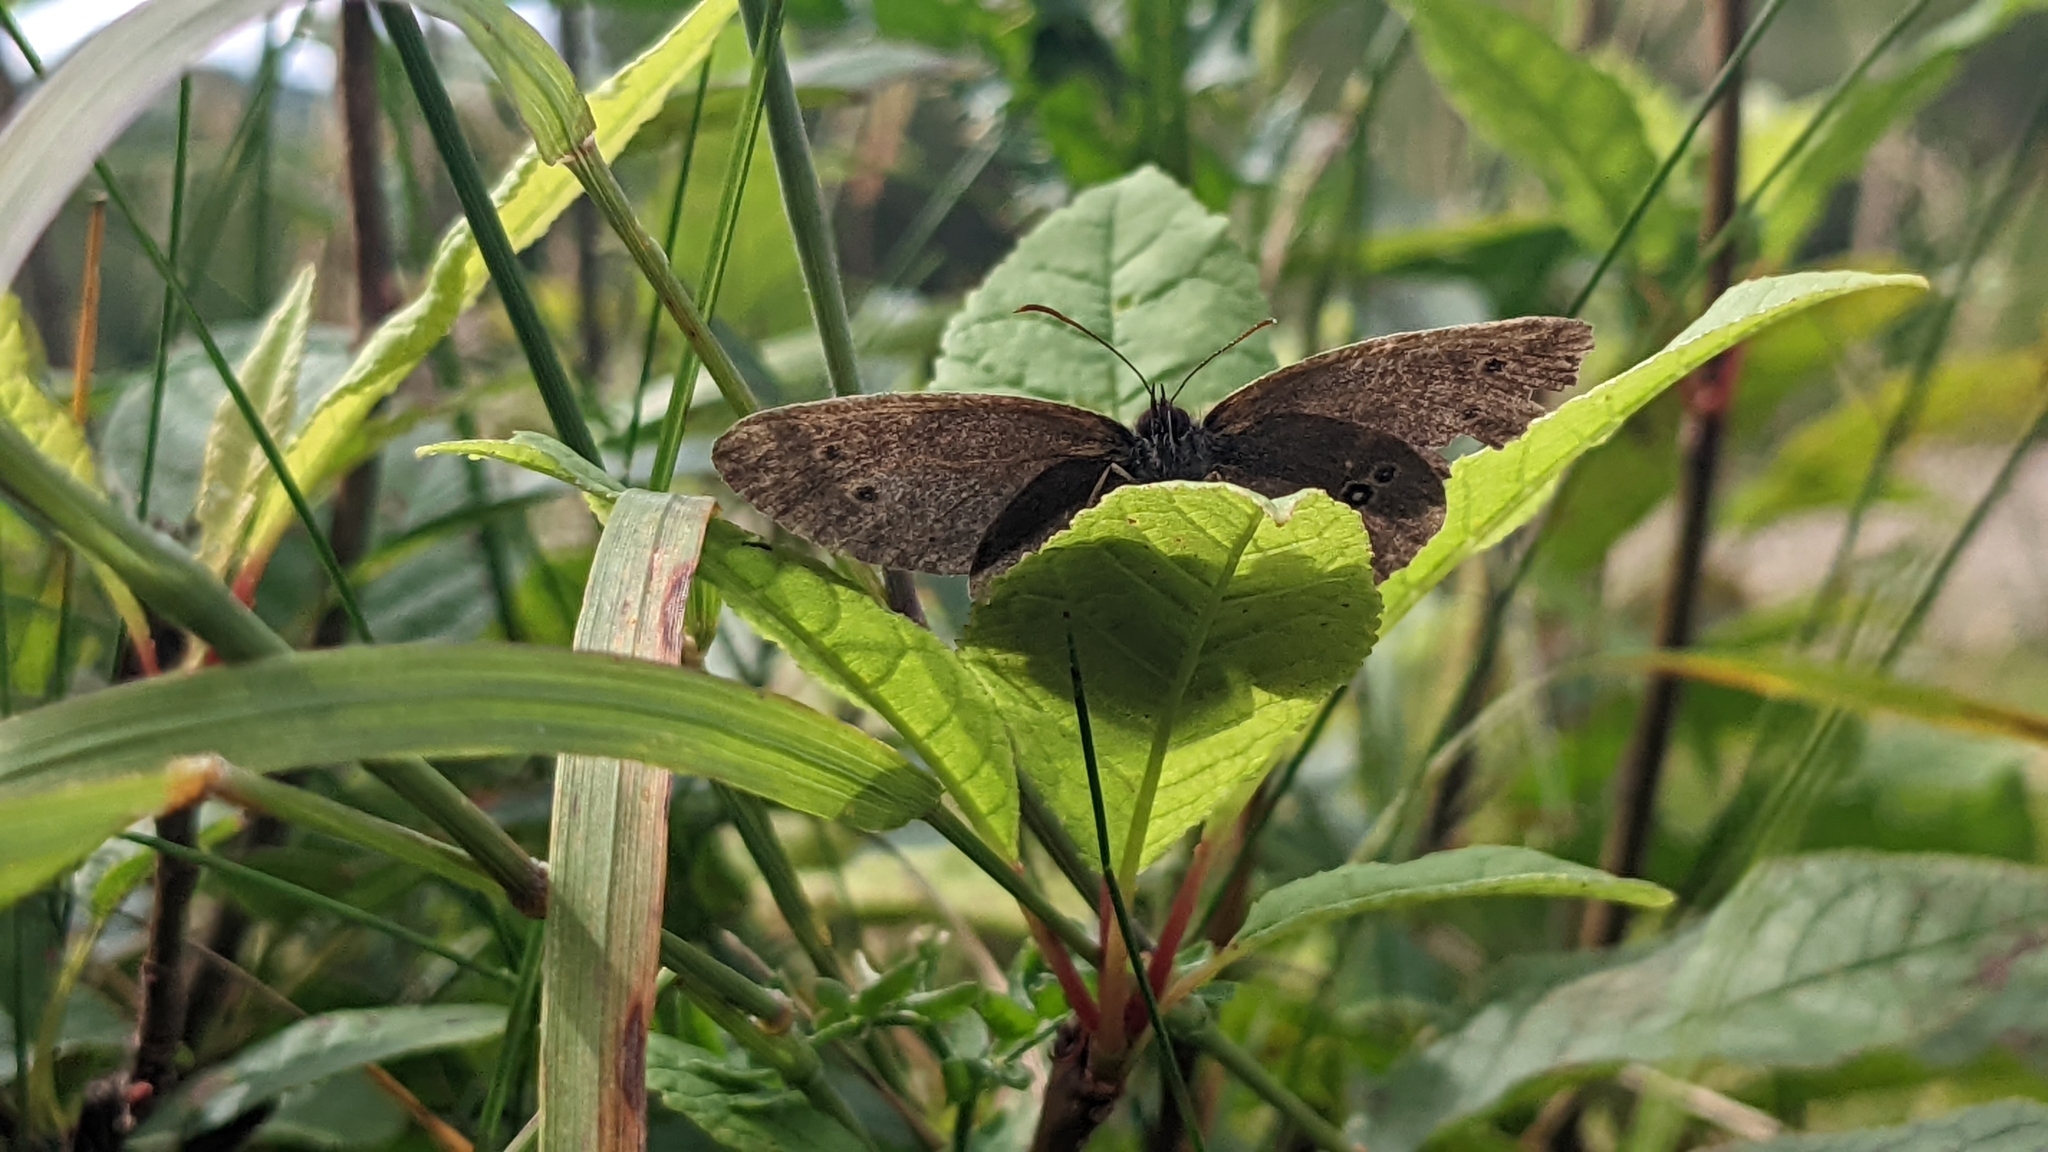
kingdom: Animalia
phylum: Arthropoda
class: Insecta
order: Lepidoptera
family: Nymphalidae
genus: Aphantopus
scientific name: Aphantopus hyperantus
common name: Ringlet
